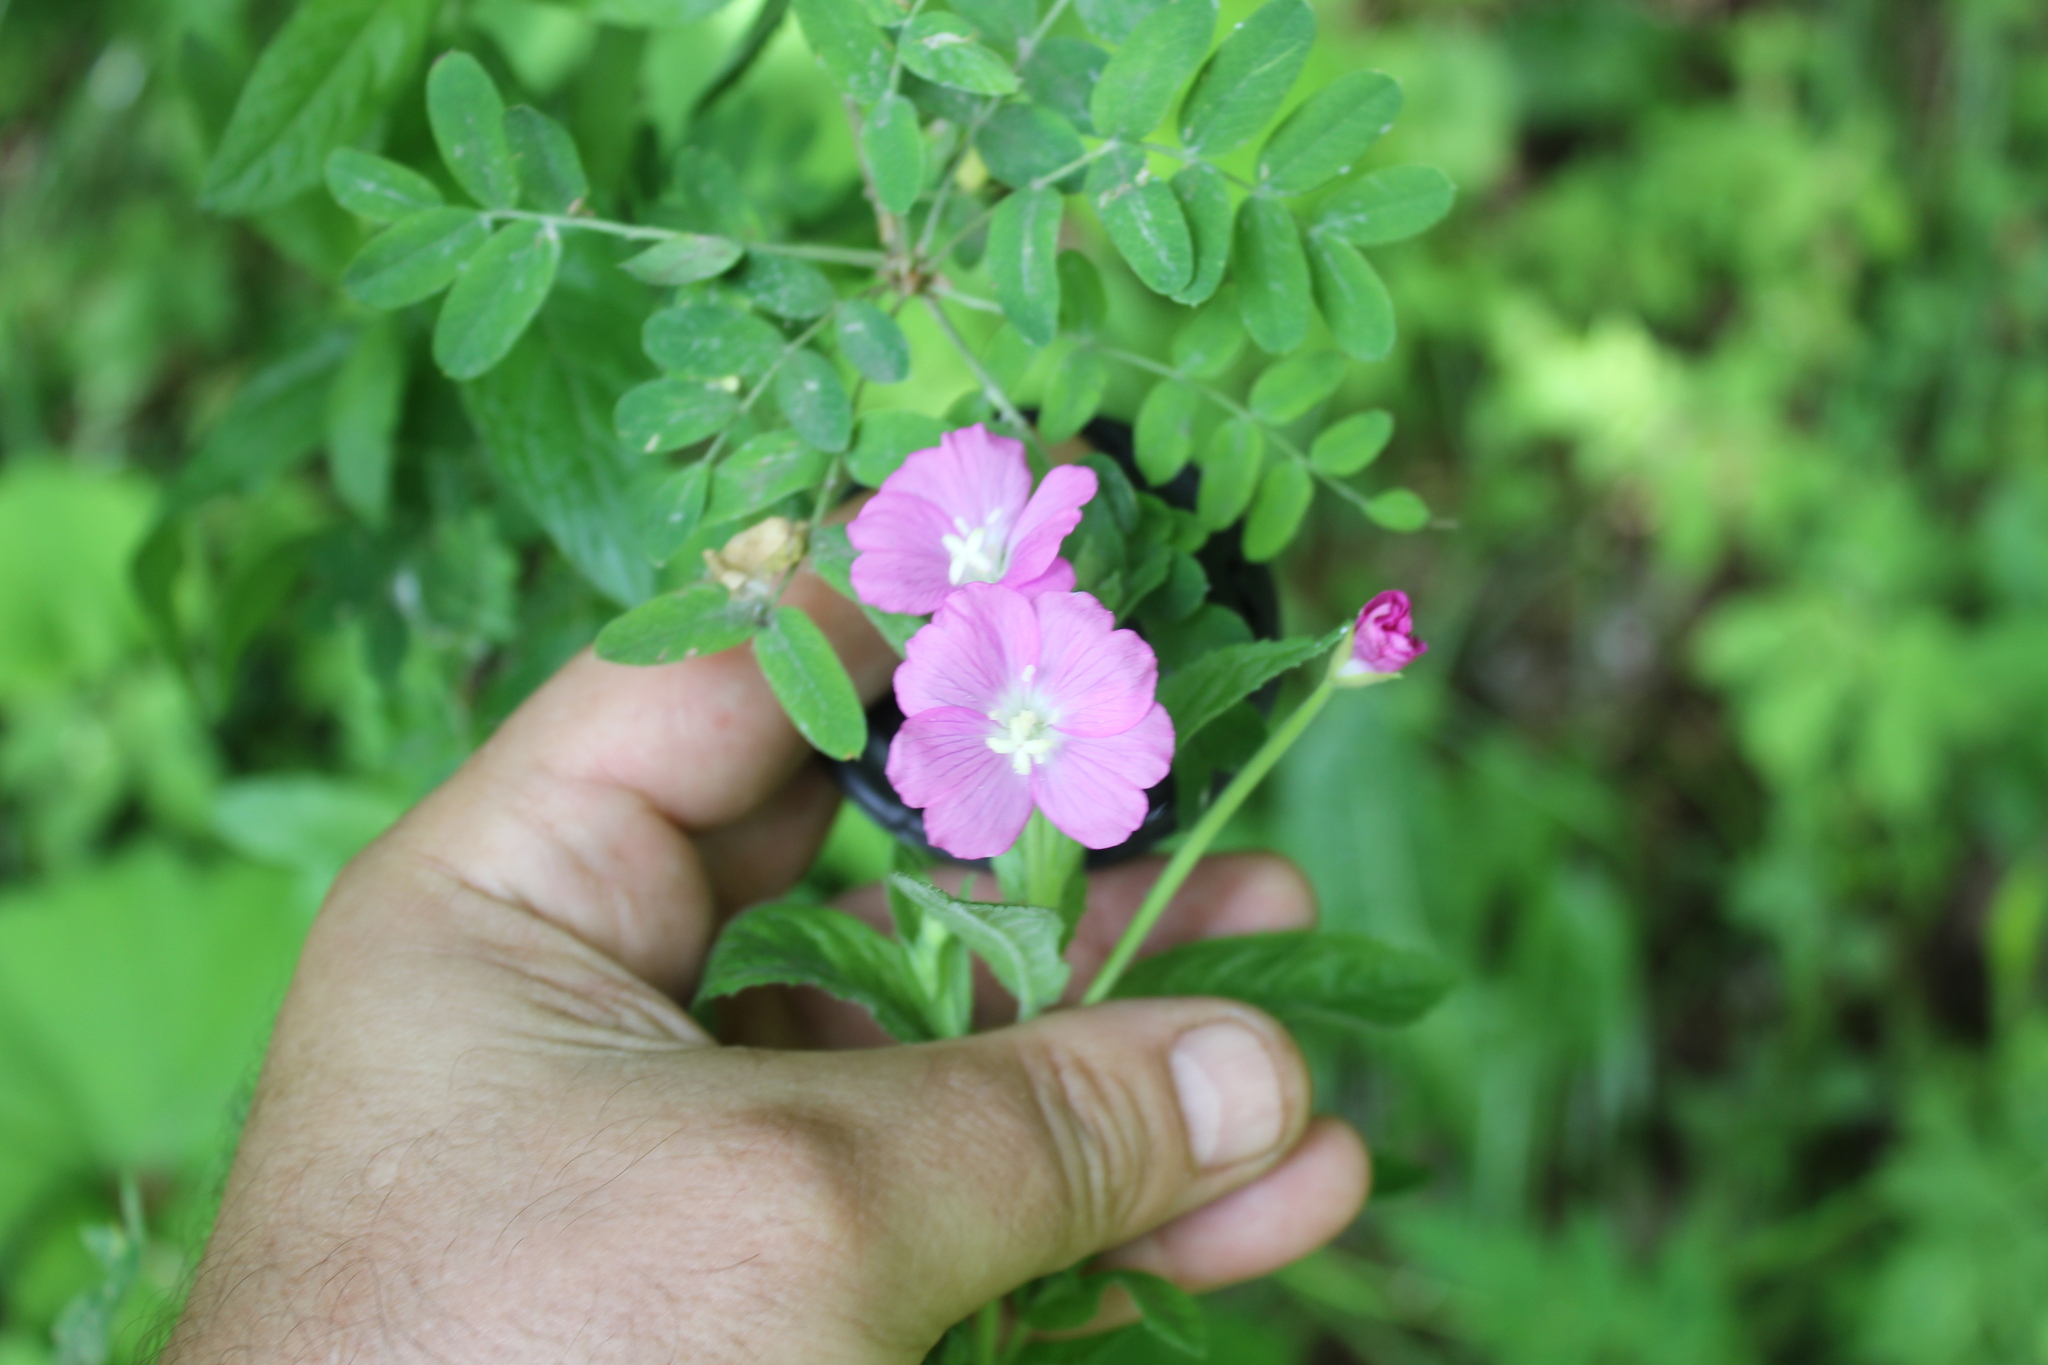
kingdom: Plantae
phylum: Tracheophyta
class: Magnoliopsida
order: Myrtales
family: Onagraceae
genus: Epilobium
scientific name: Epilobium hirsutum
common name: Great willowherb
